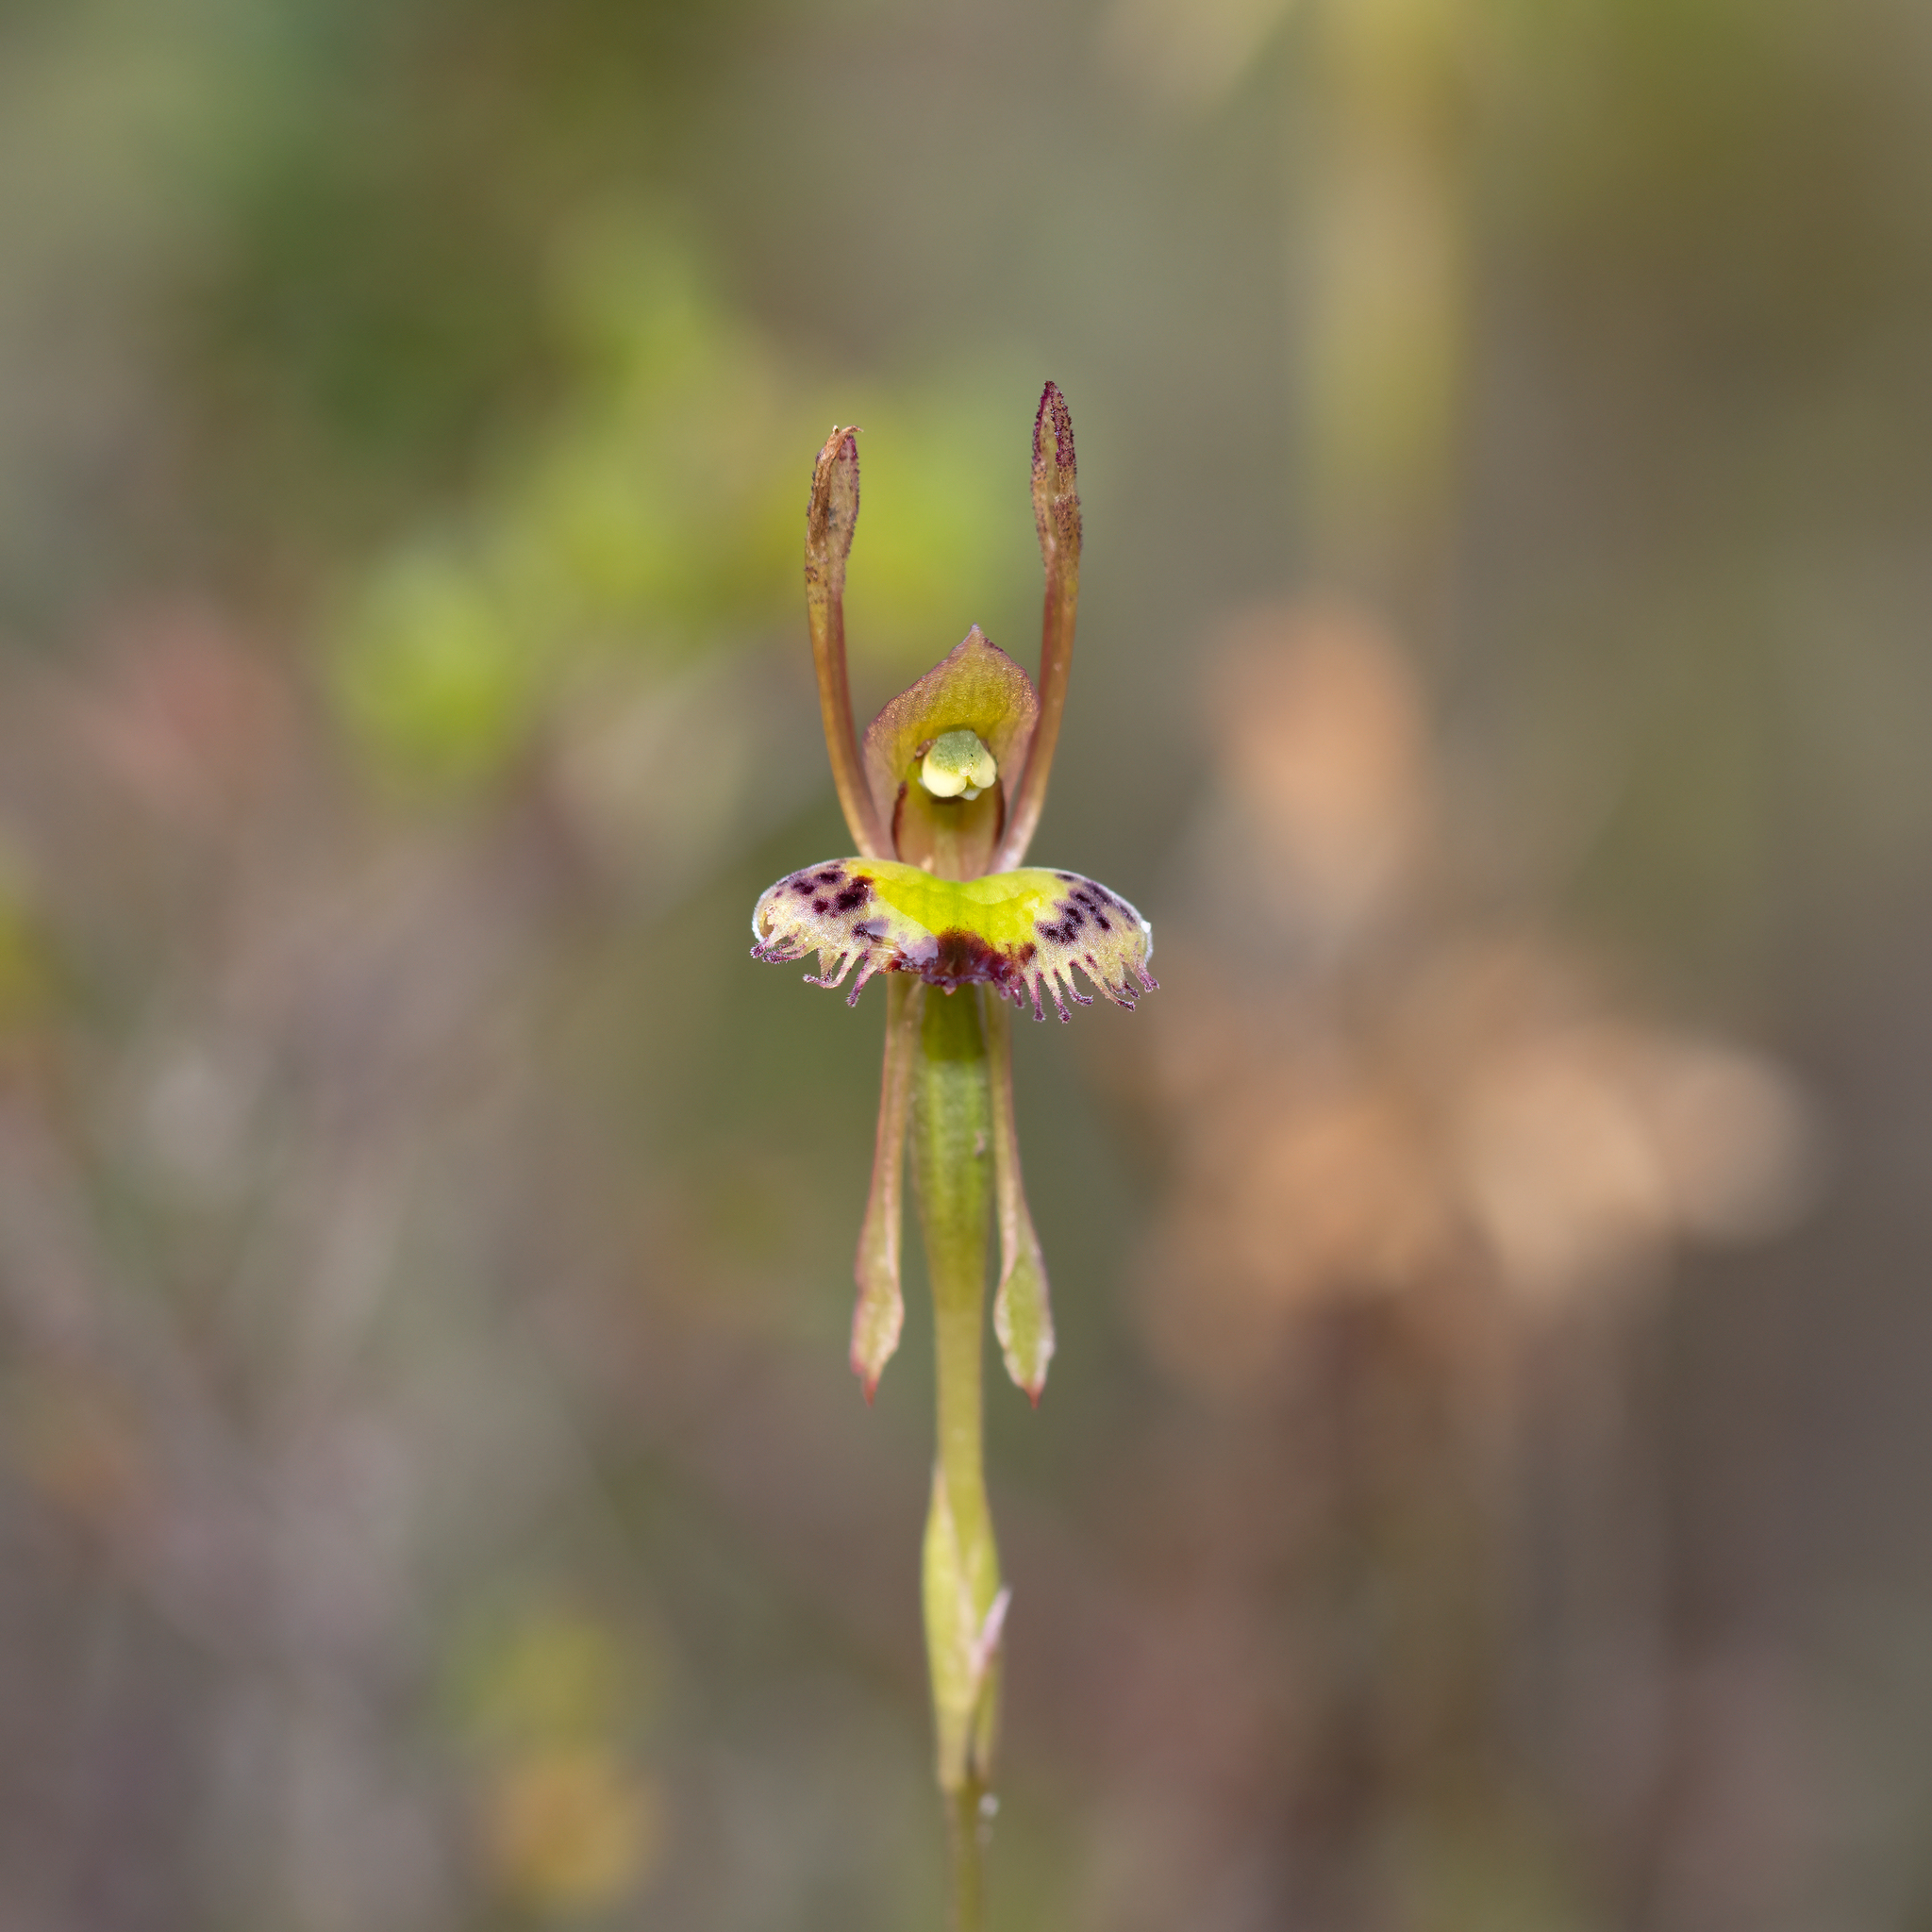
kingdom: Plantae
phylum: Tracheophyta
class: Liliopsida
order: Asparagales
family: Orchidaceae
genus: Leporella
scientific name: Leporella fimbriata
